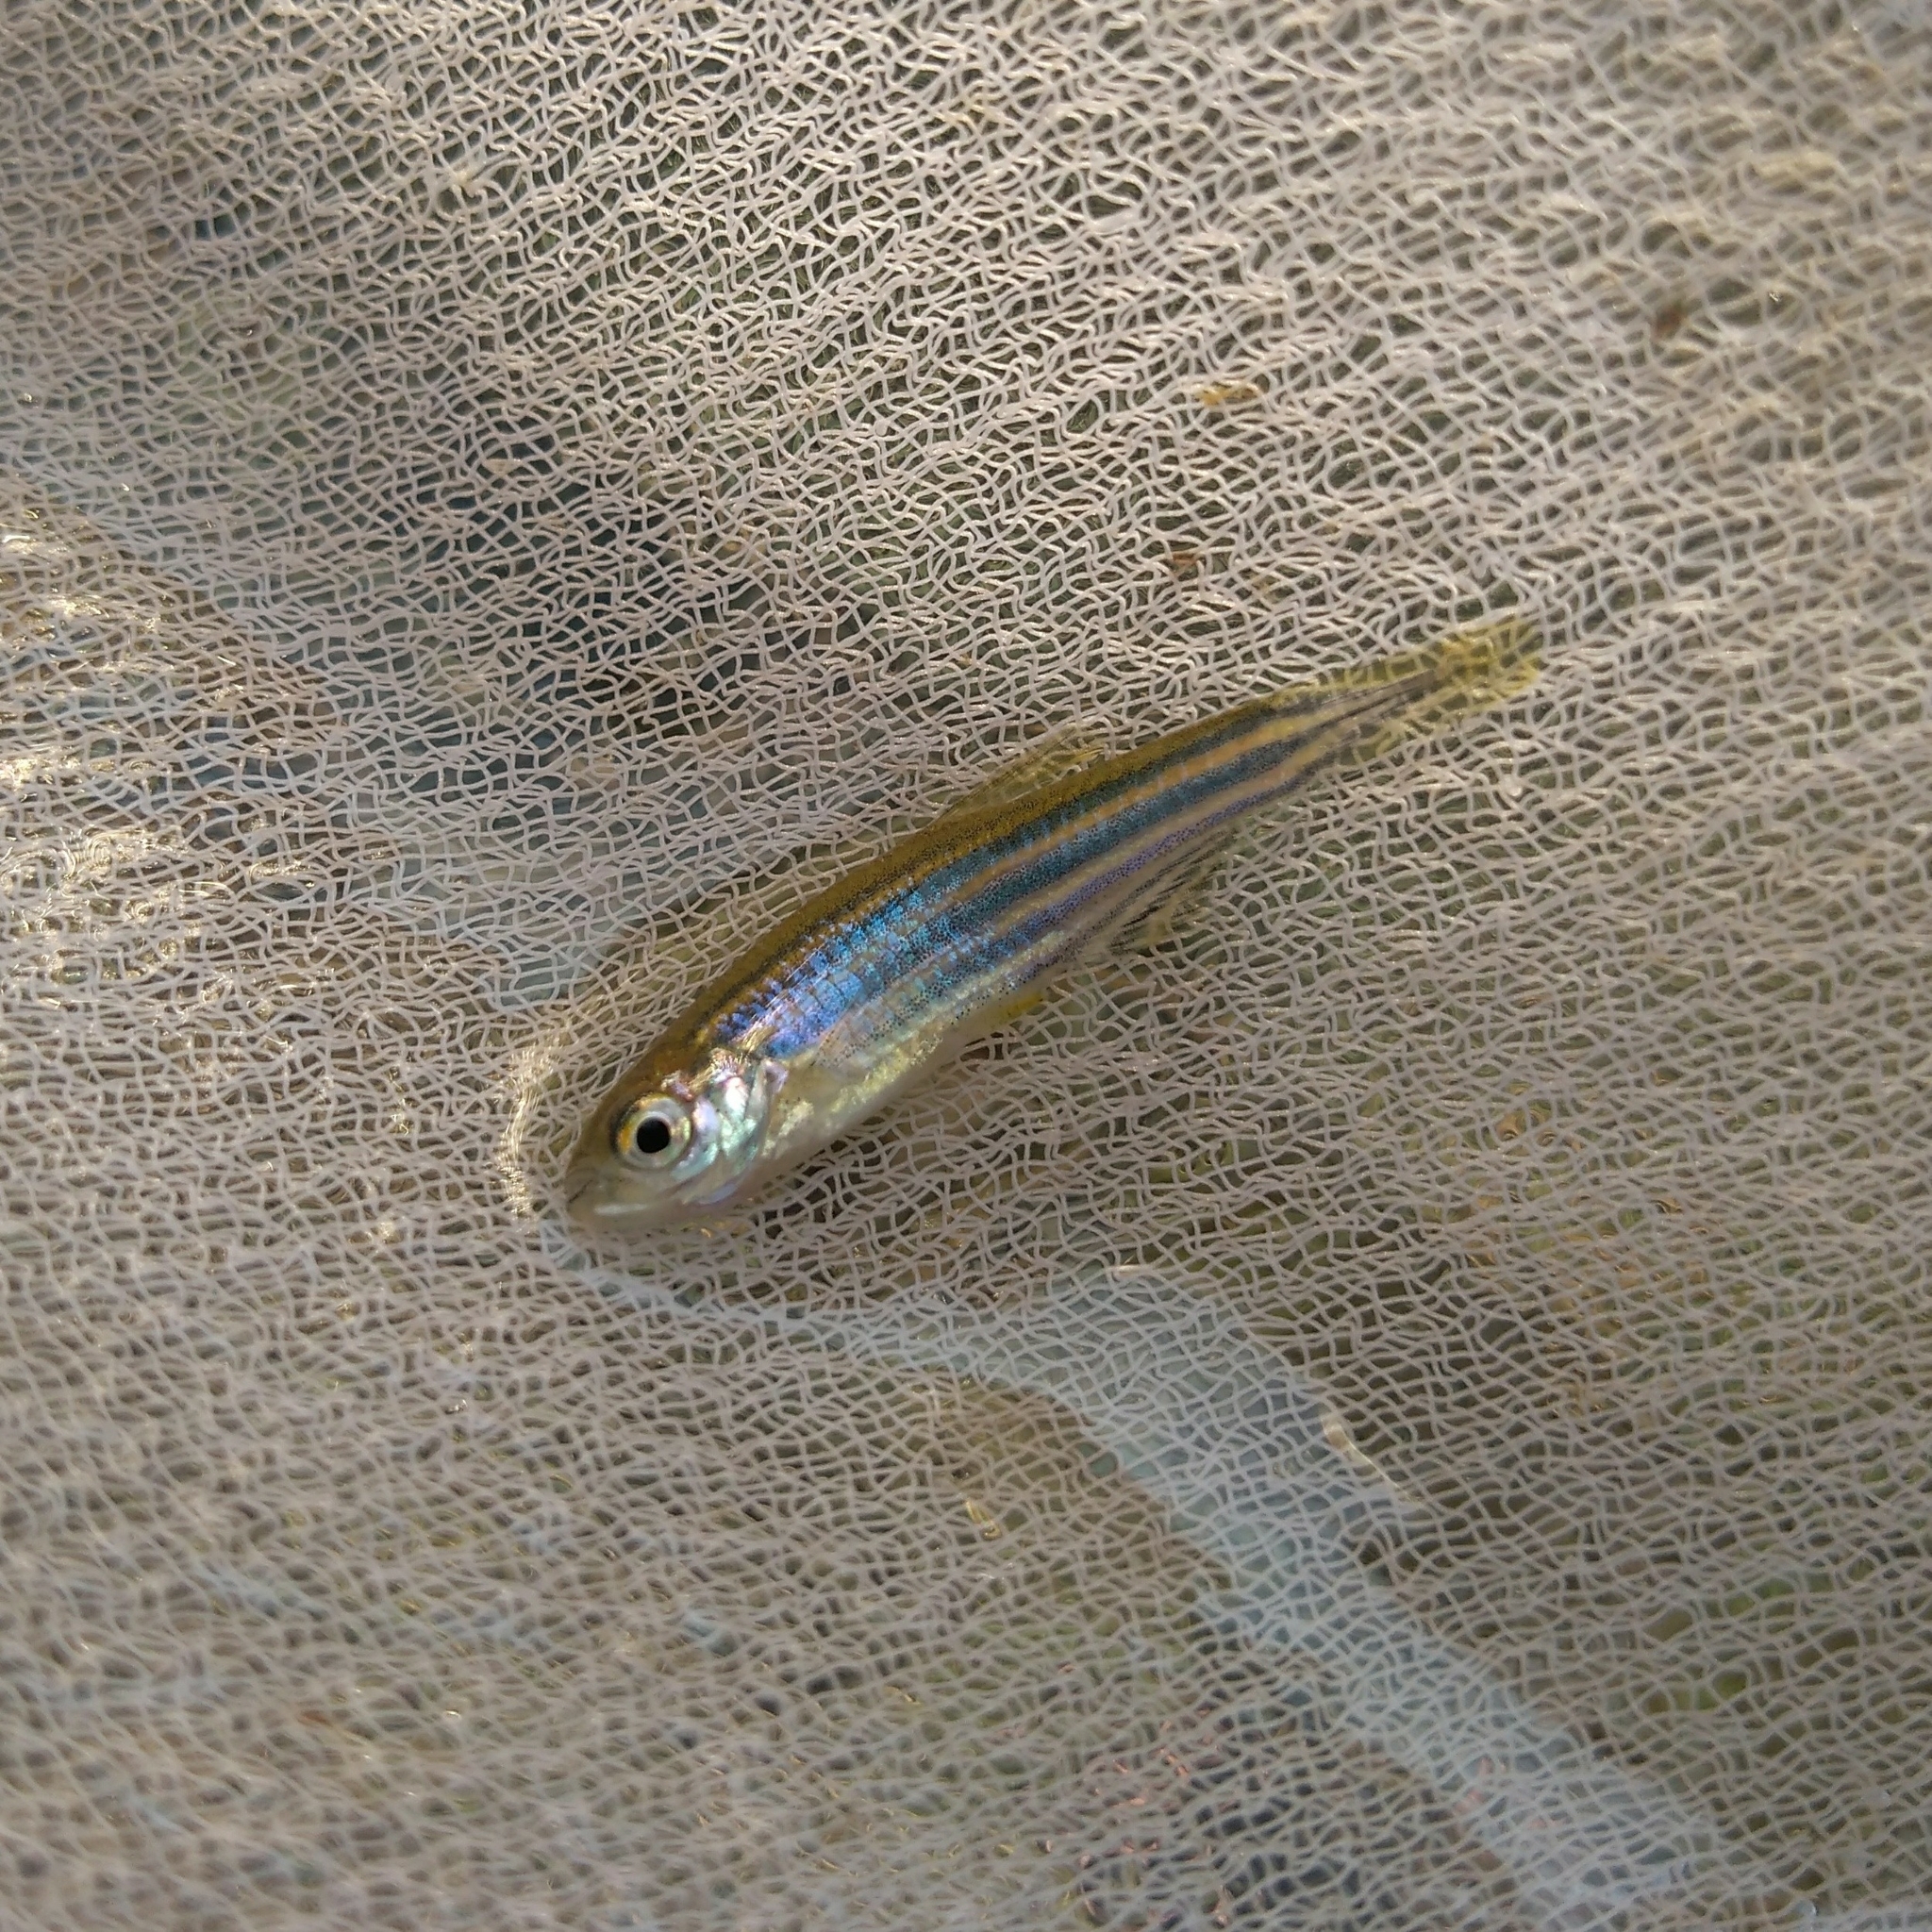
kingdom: Animalia
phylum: Chordata
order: Cypriniformes
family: Cyprinidae
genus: Danio
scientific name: Danio rerio
